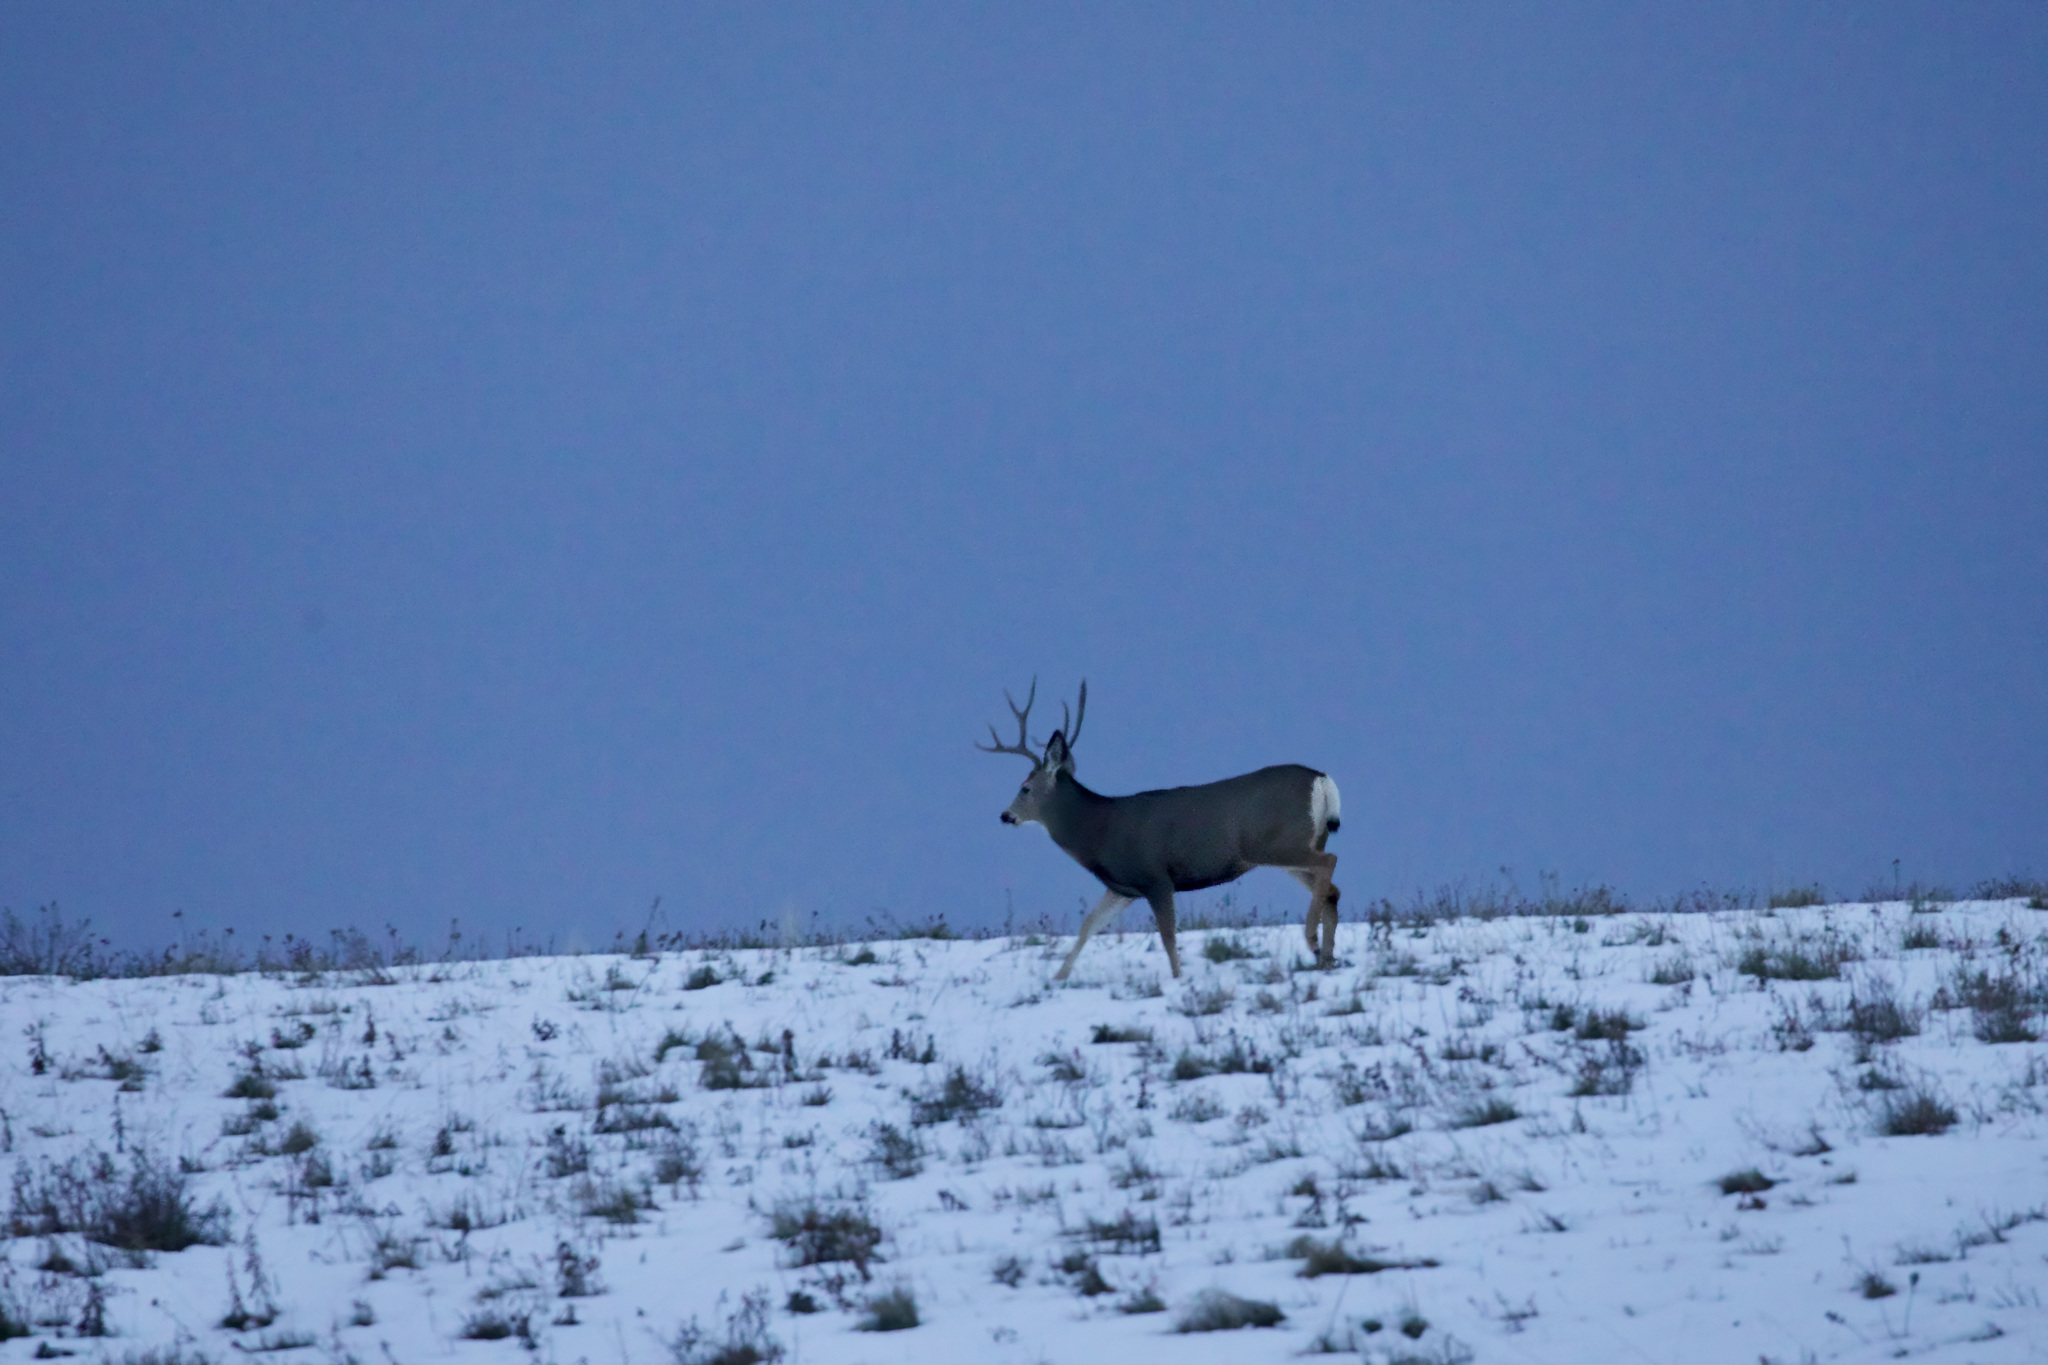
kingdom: Animalia
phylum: Chordata
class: Mammalia
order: Artiodactyla
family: Cervidae
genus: Odocoileus
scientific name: Odocoileus hemionus
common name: Mule deer
